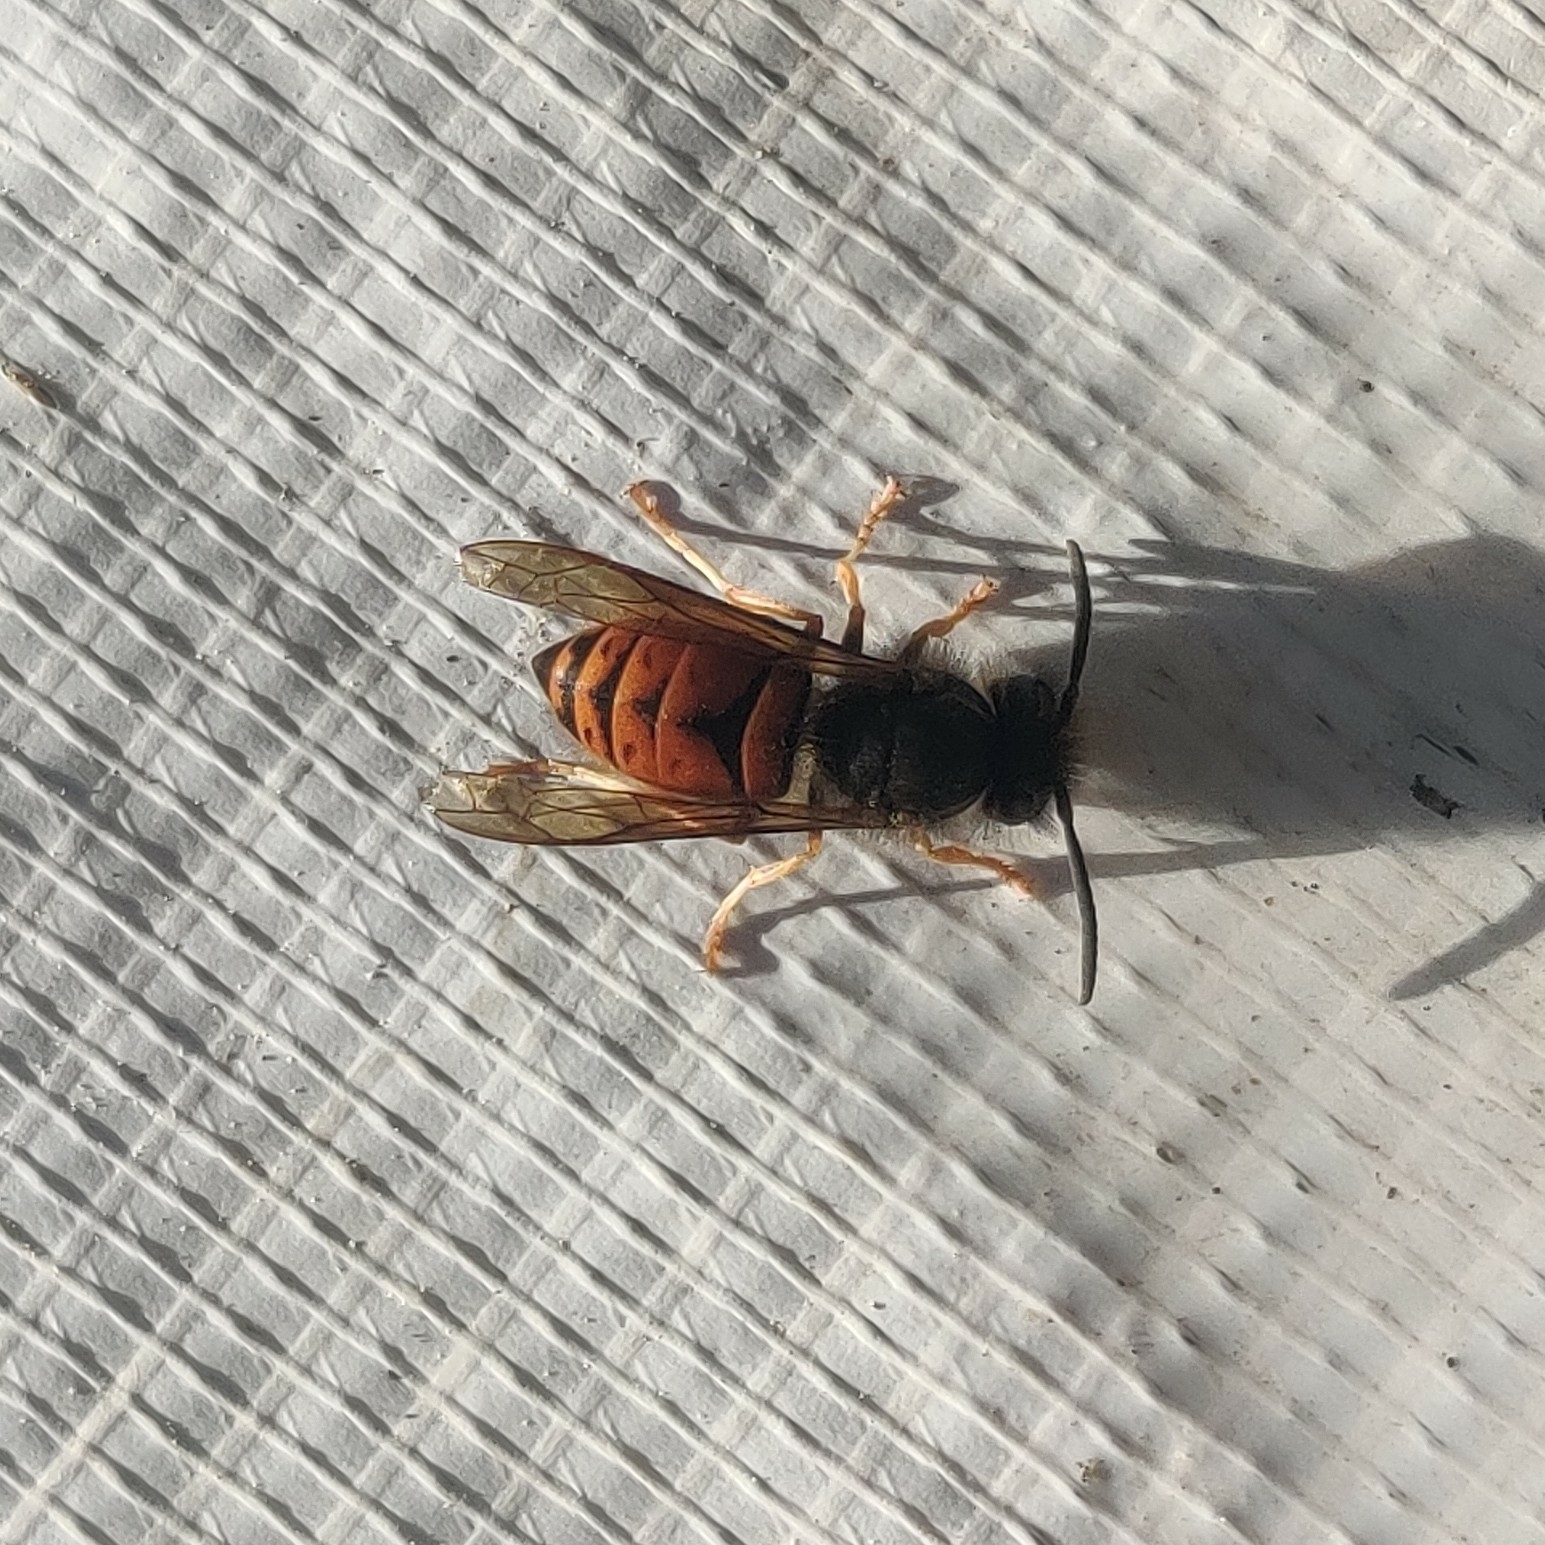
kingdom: Animalia
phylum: Arthropoda
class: Insecta
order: Hymenoptera
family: Vespidae
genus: Vespula
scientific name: Vespula structor
